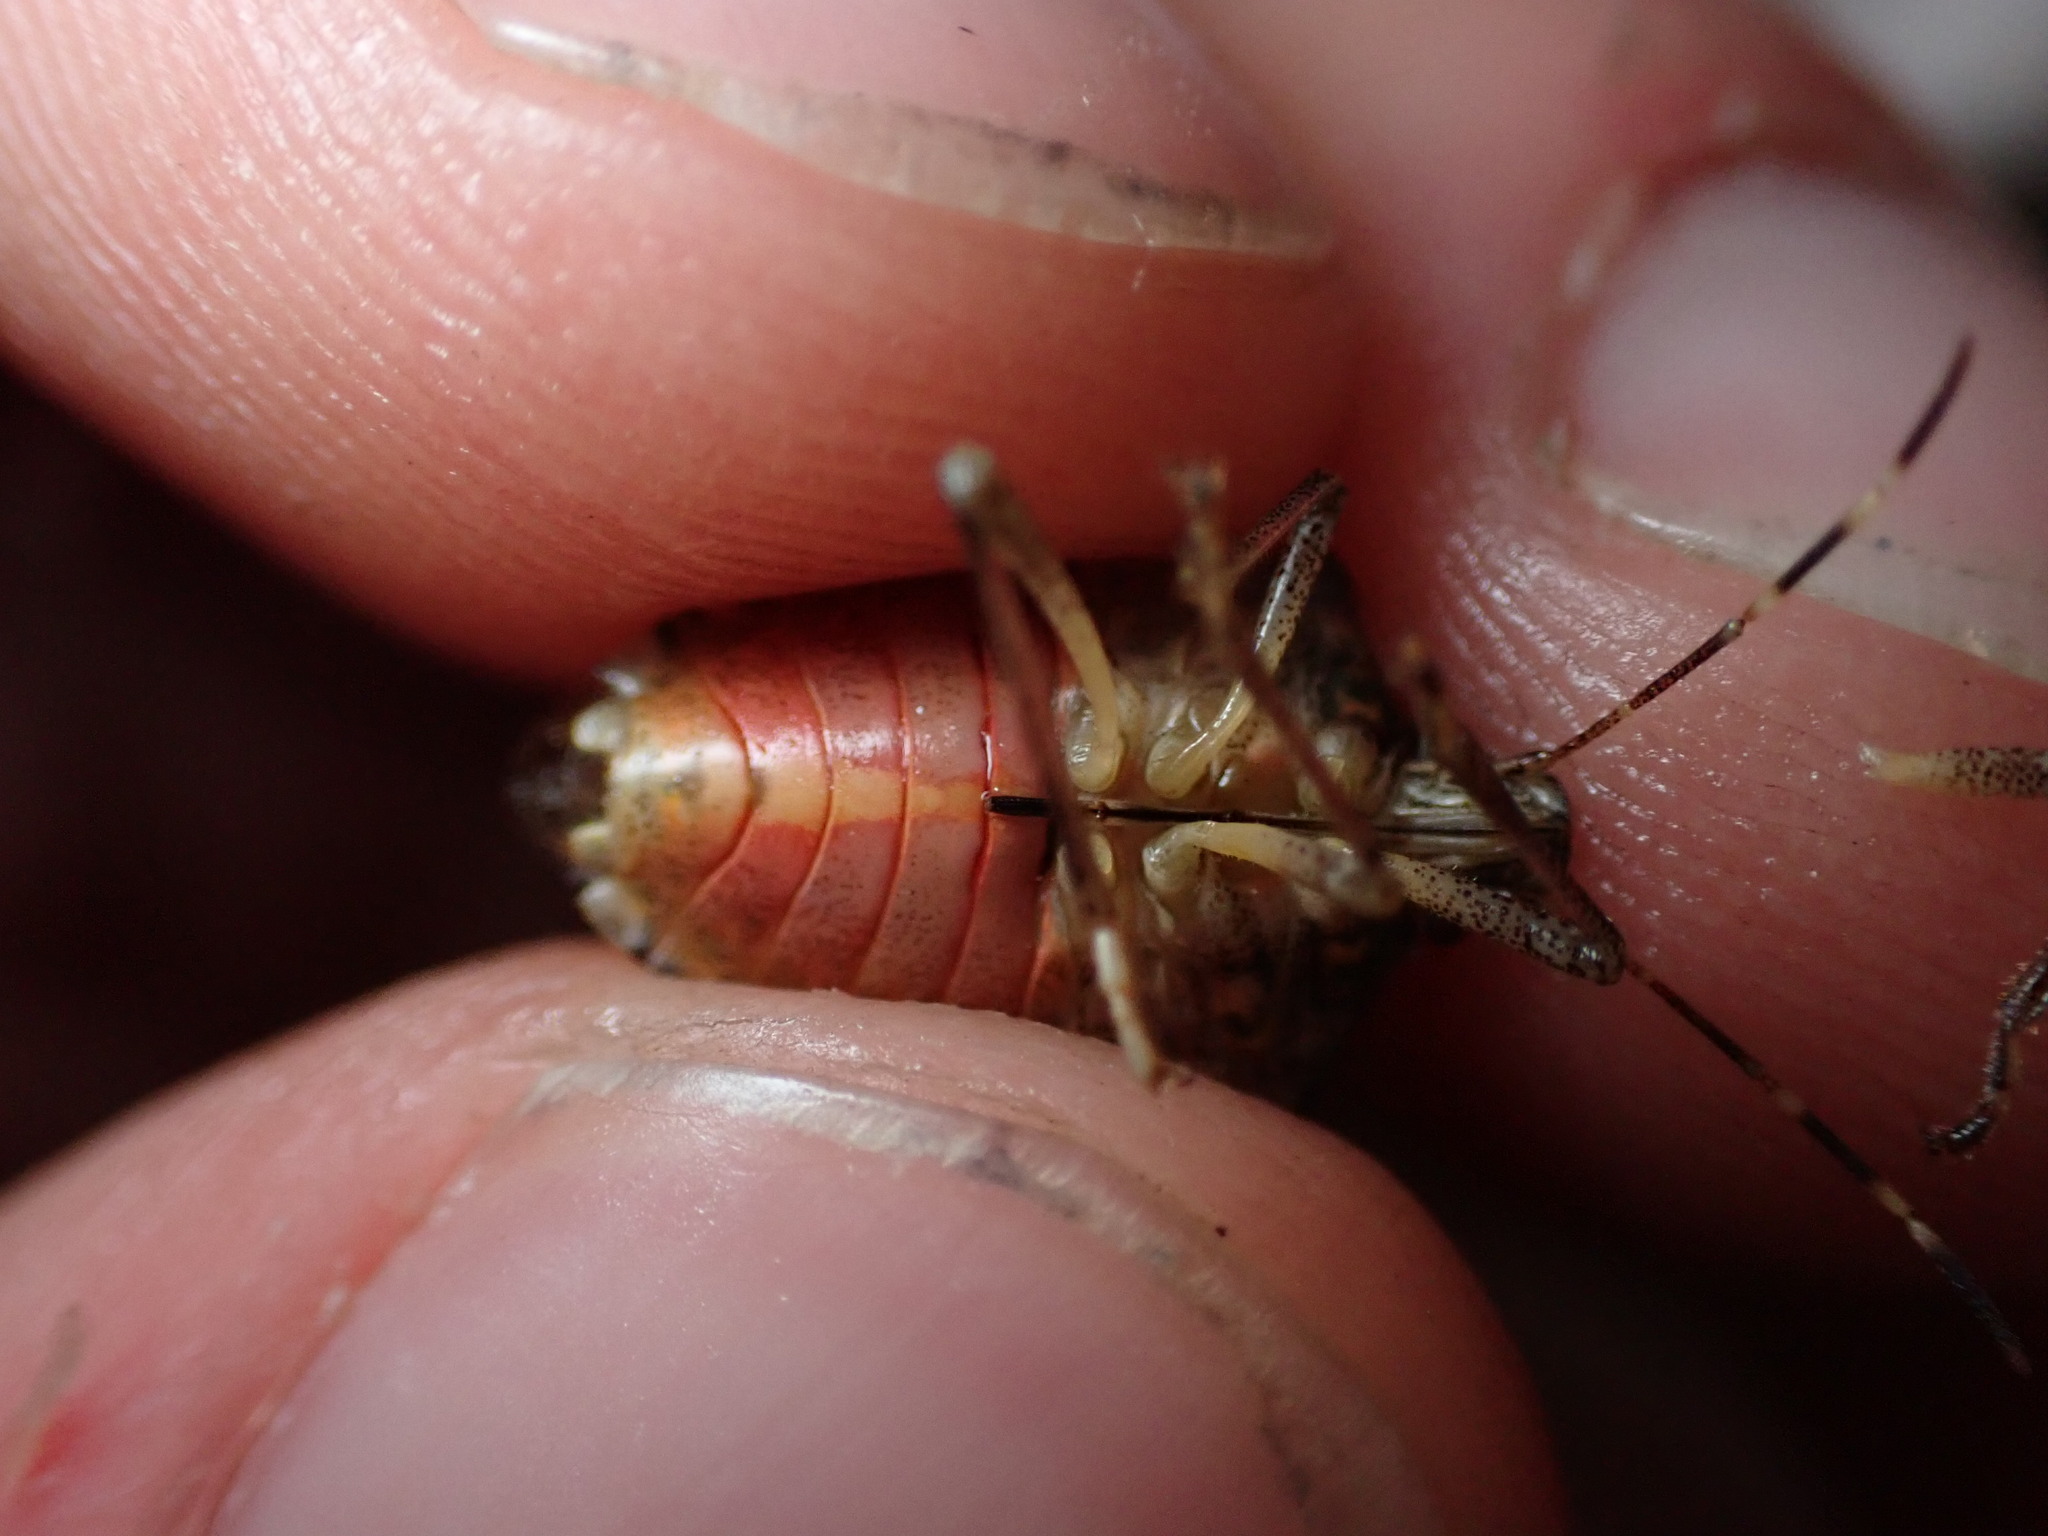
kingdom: Animalia
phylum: Arthropoda
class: Insecta
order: Hemiptera
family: Pentatomidae
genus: Halyomorpha
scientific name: Halyomorpha halys
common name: Brown marmorated stink bug
